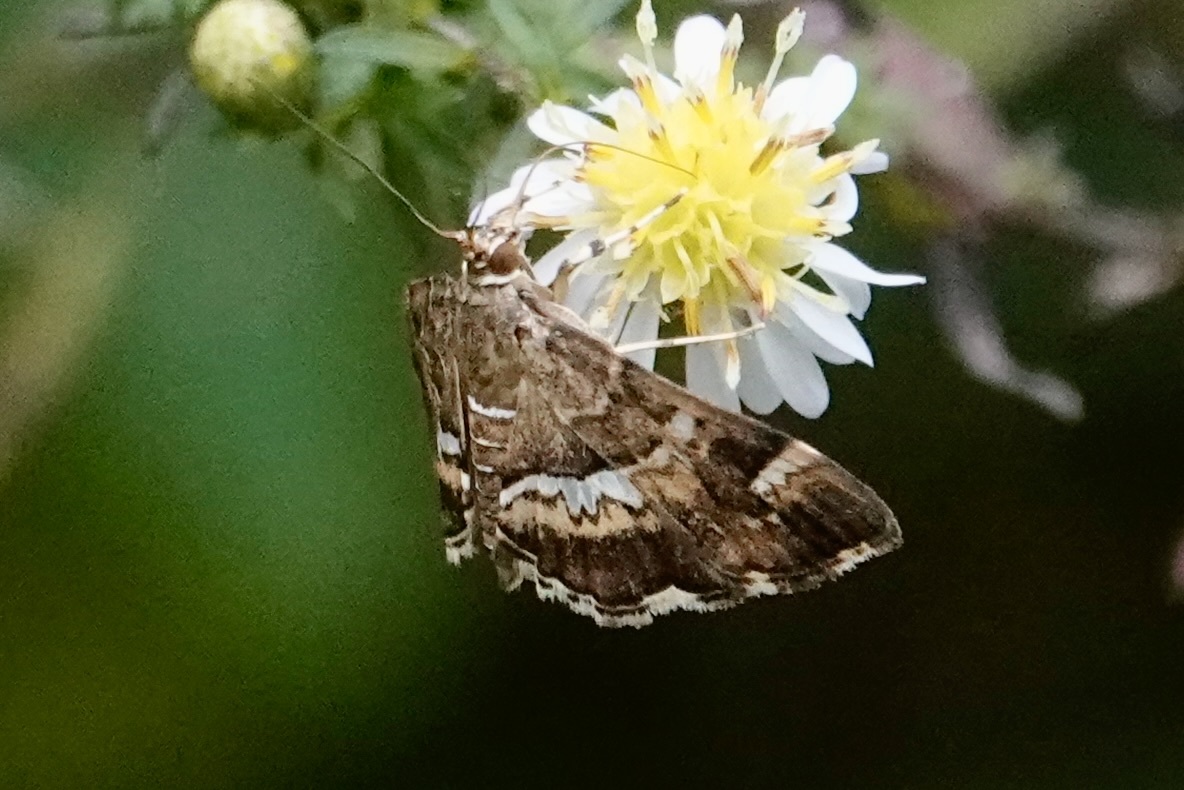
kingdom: Animalia
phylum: Arthropoda
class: Insecta
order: Lepidoptera
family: Crambidae
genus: Hymenia
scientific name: Hymenia perspectalis
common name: Spotted beet webworm
